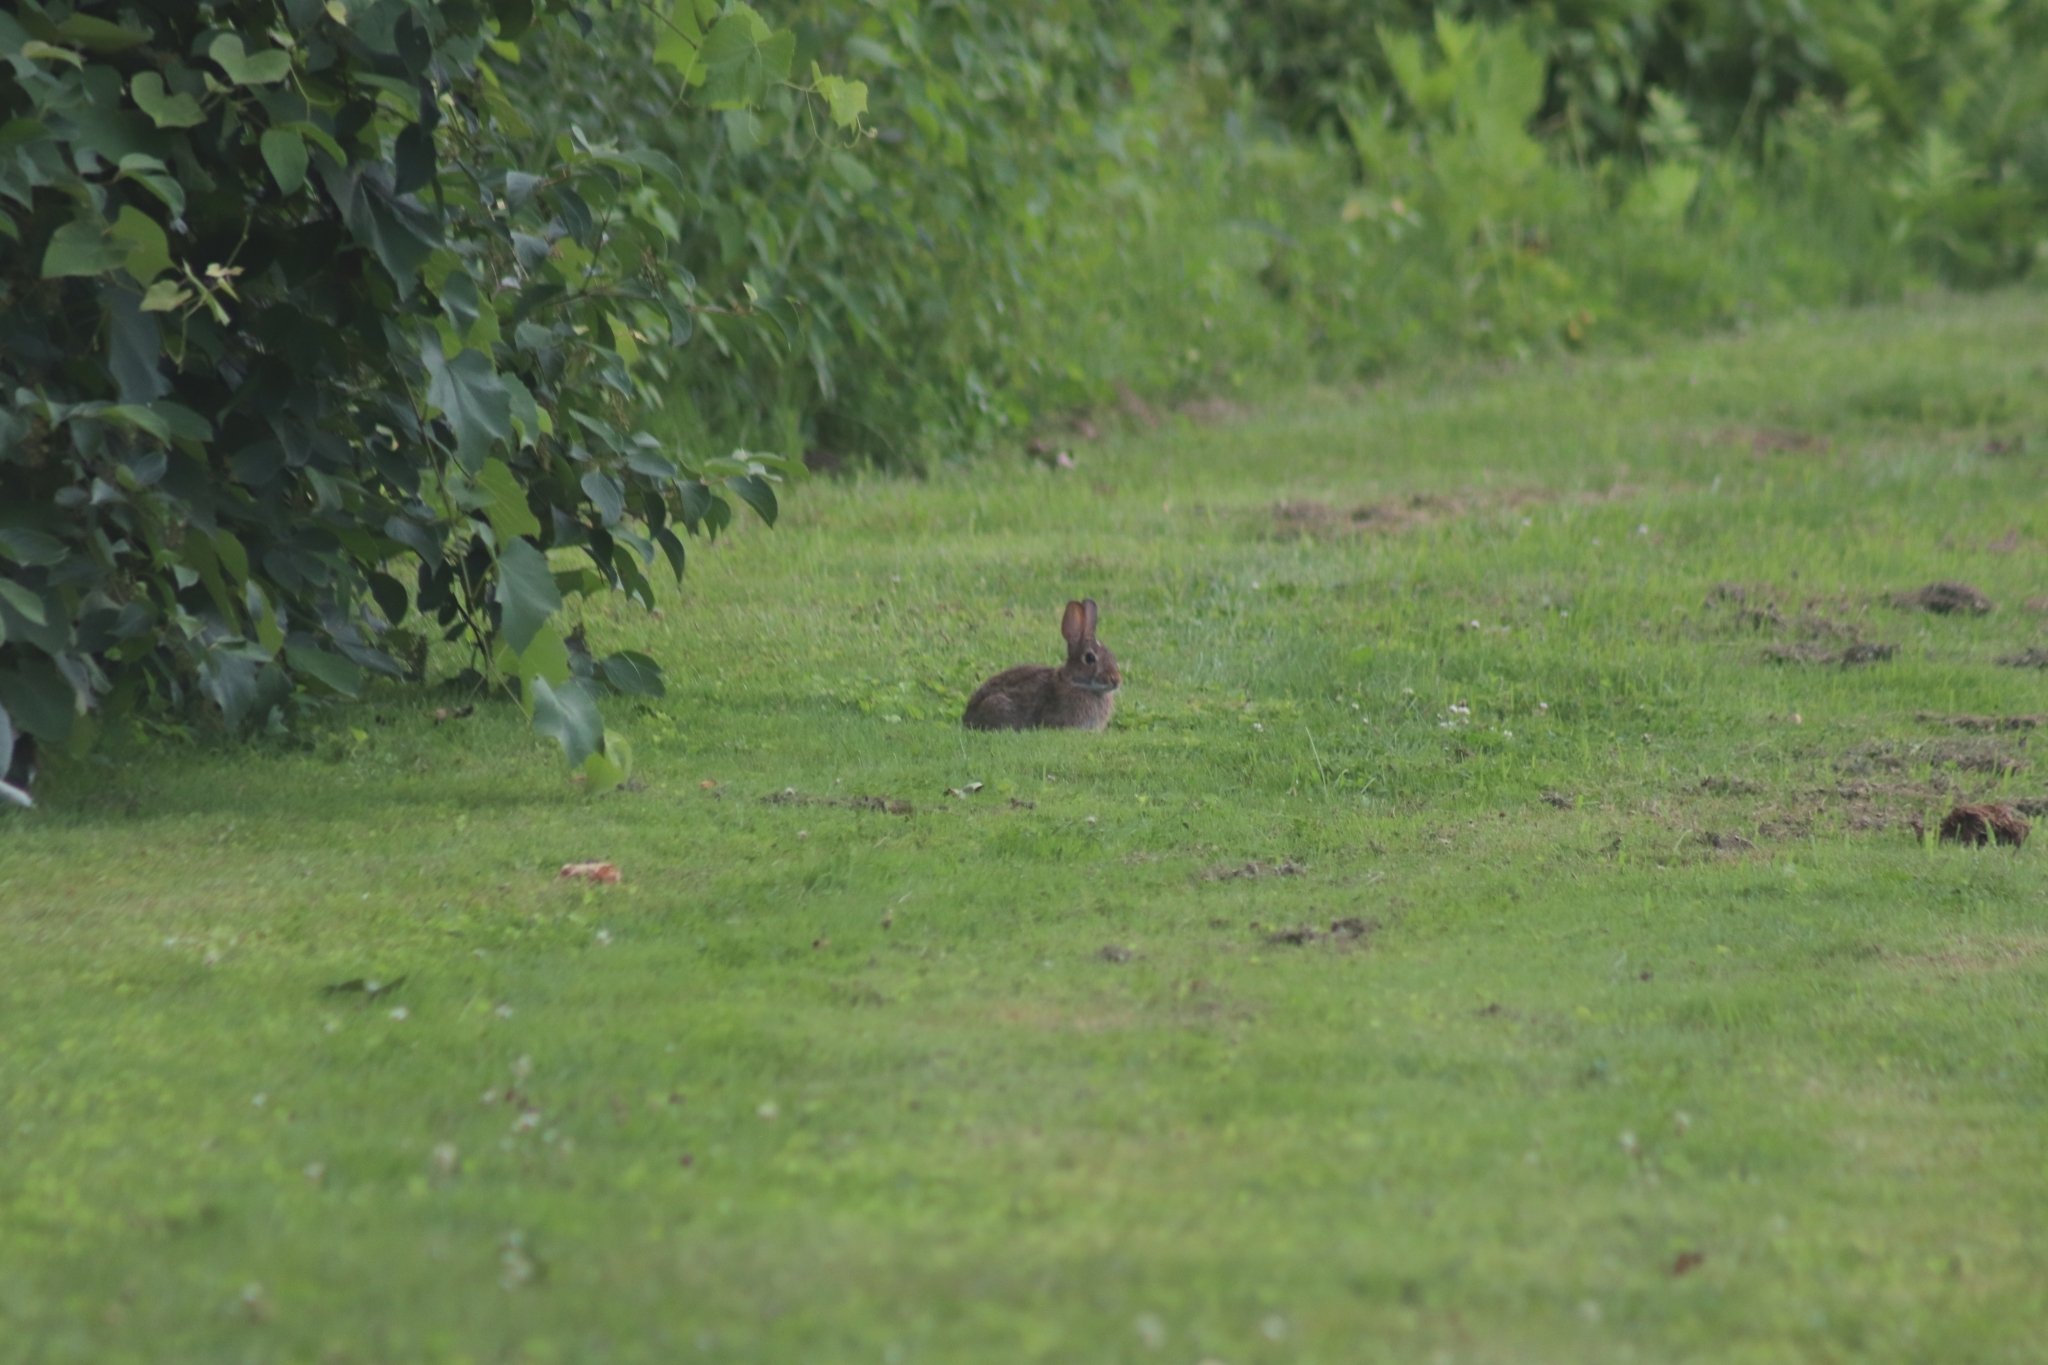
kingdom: Animalia
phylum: Chordata
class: Mammalia
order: Lagomorpha
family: Leporidae
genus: Sylvilagus
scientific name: Sylvilagus floridanus
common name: Eastern cottontail
